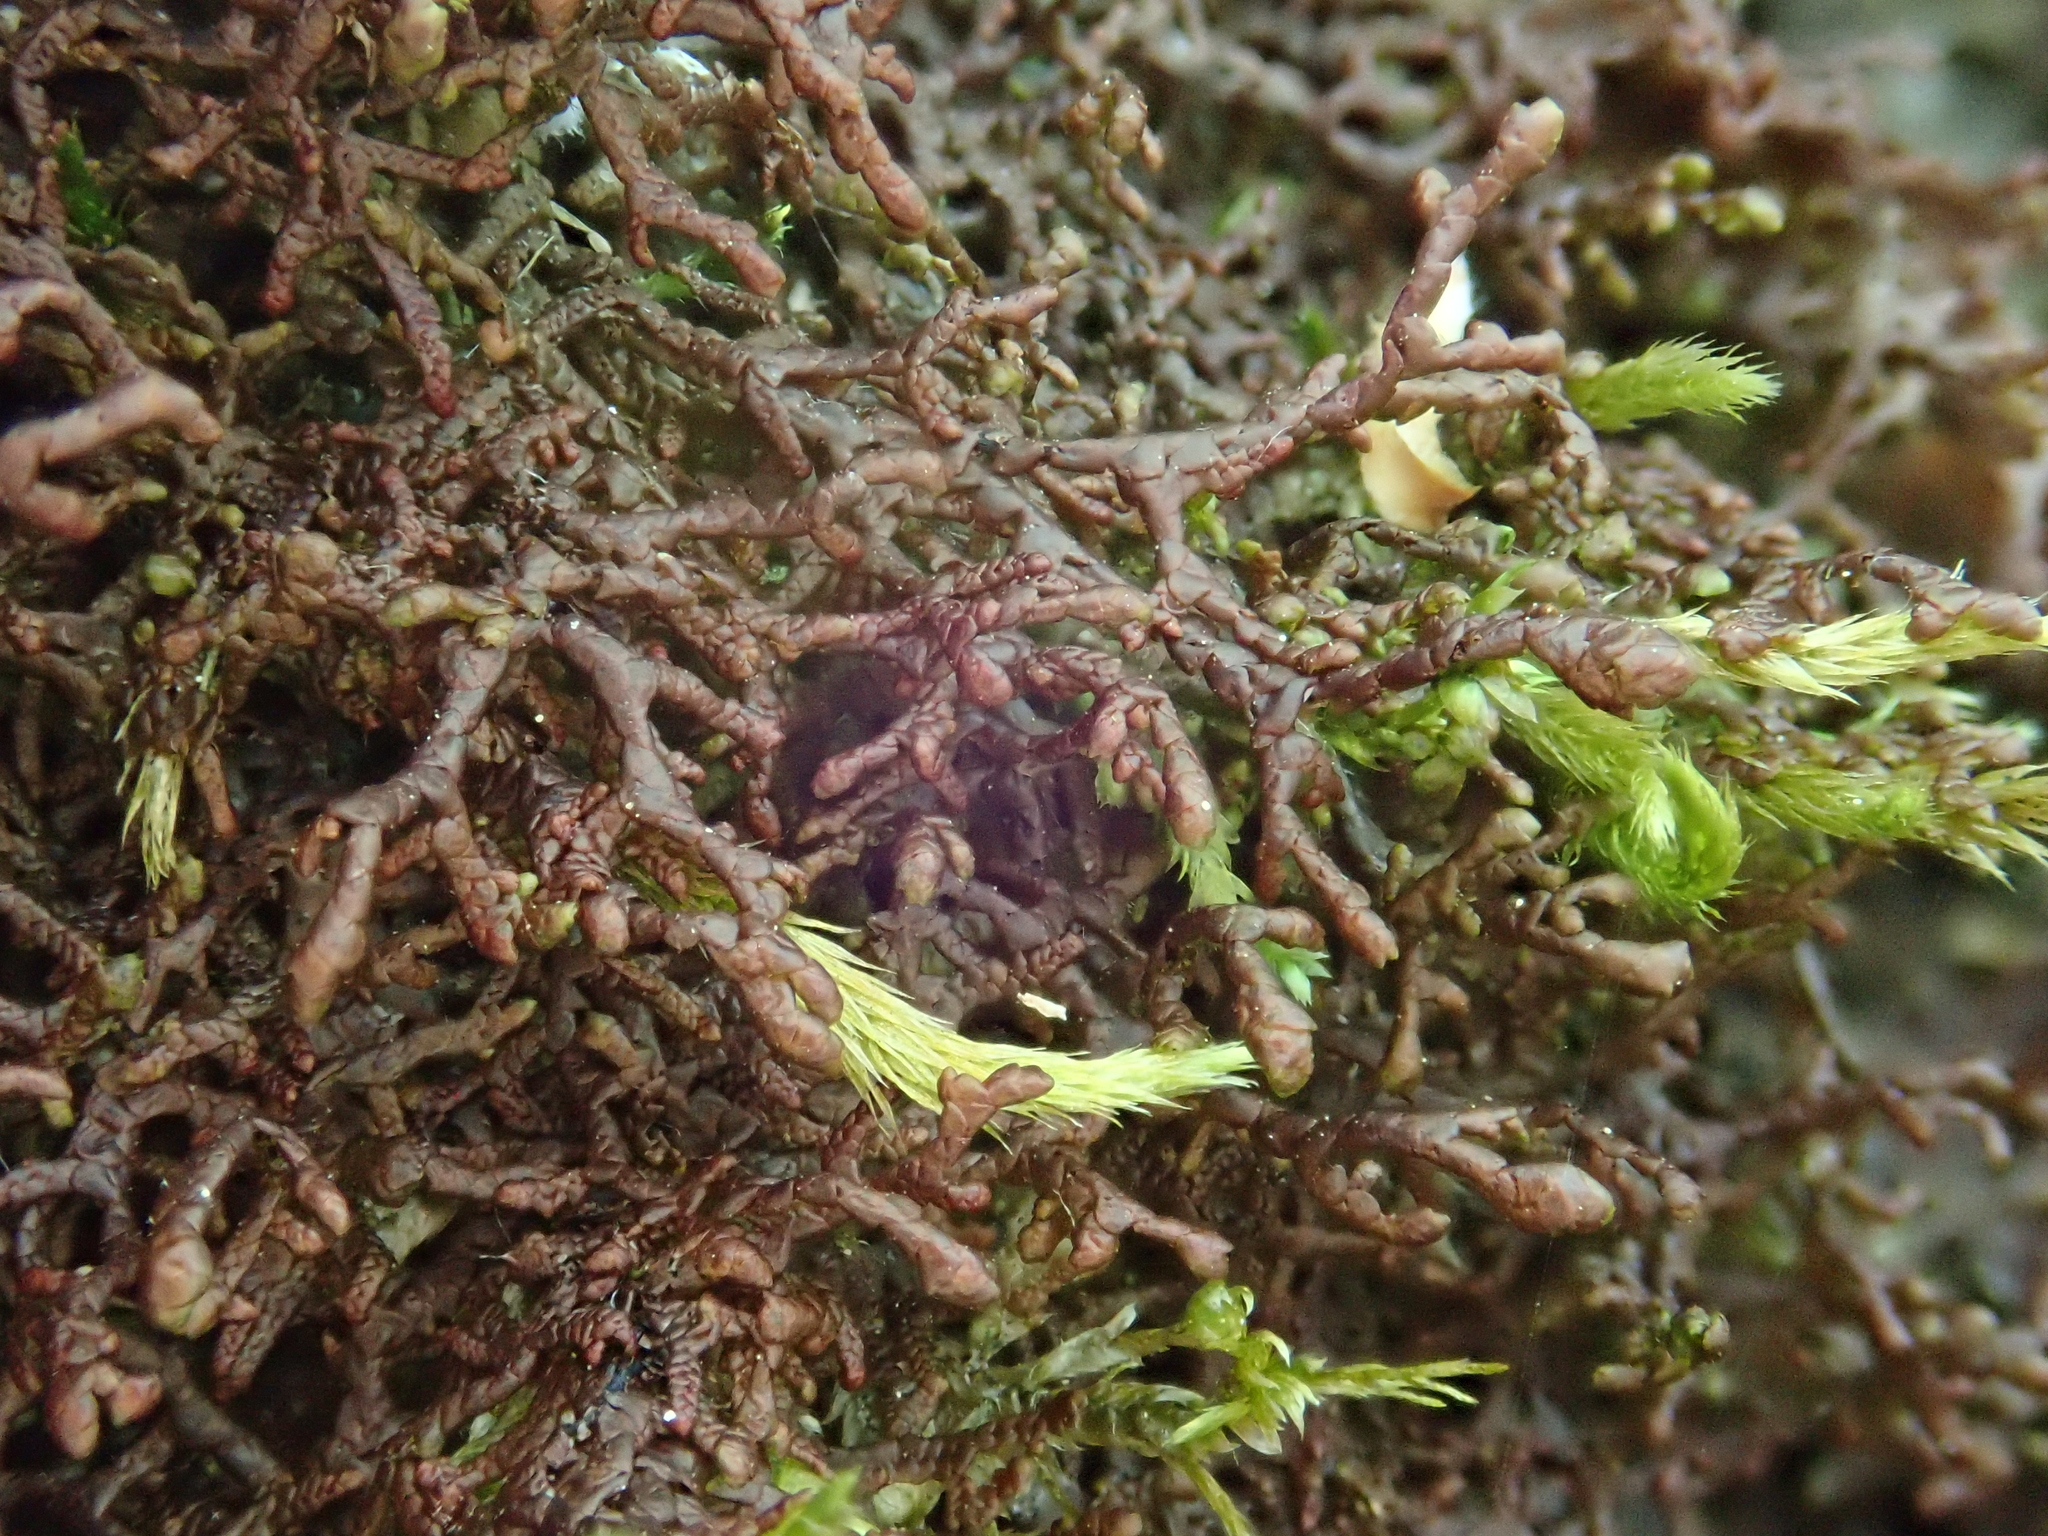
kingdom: Plantae
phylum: Marchantiophyta
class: Jungermanniopsida
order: Porellales
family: Frullaniaceae
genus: Frullania
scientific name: Frullania tamarisci
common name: Tamarisk scalewort
